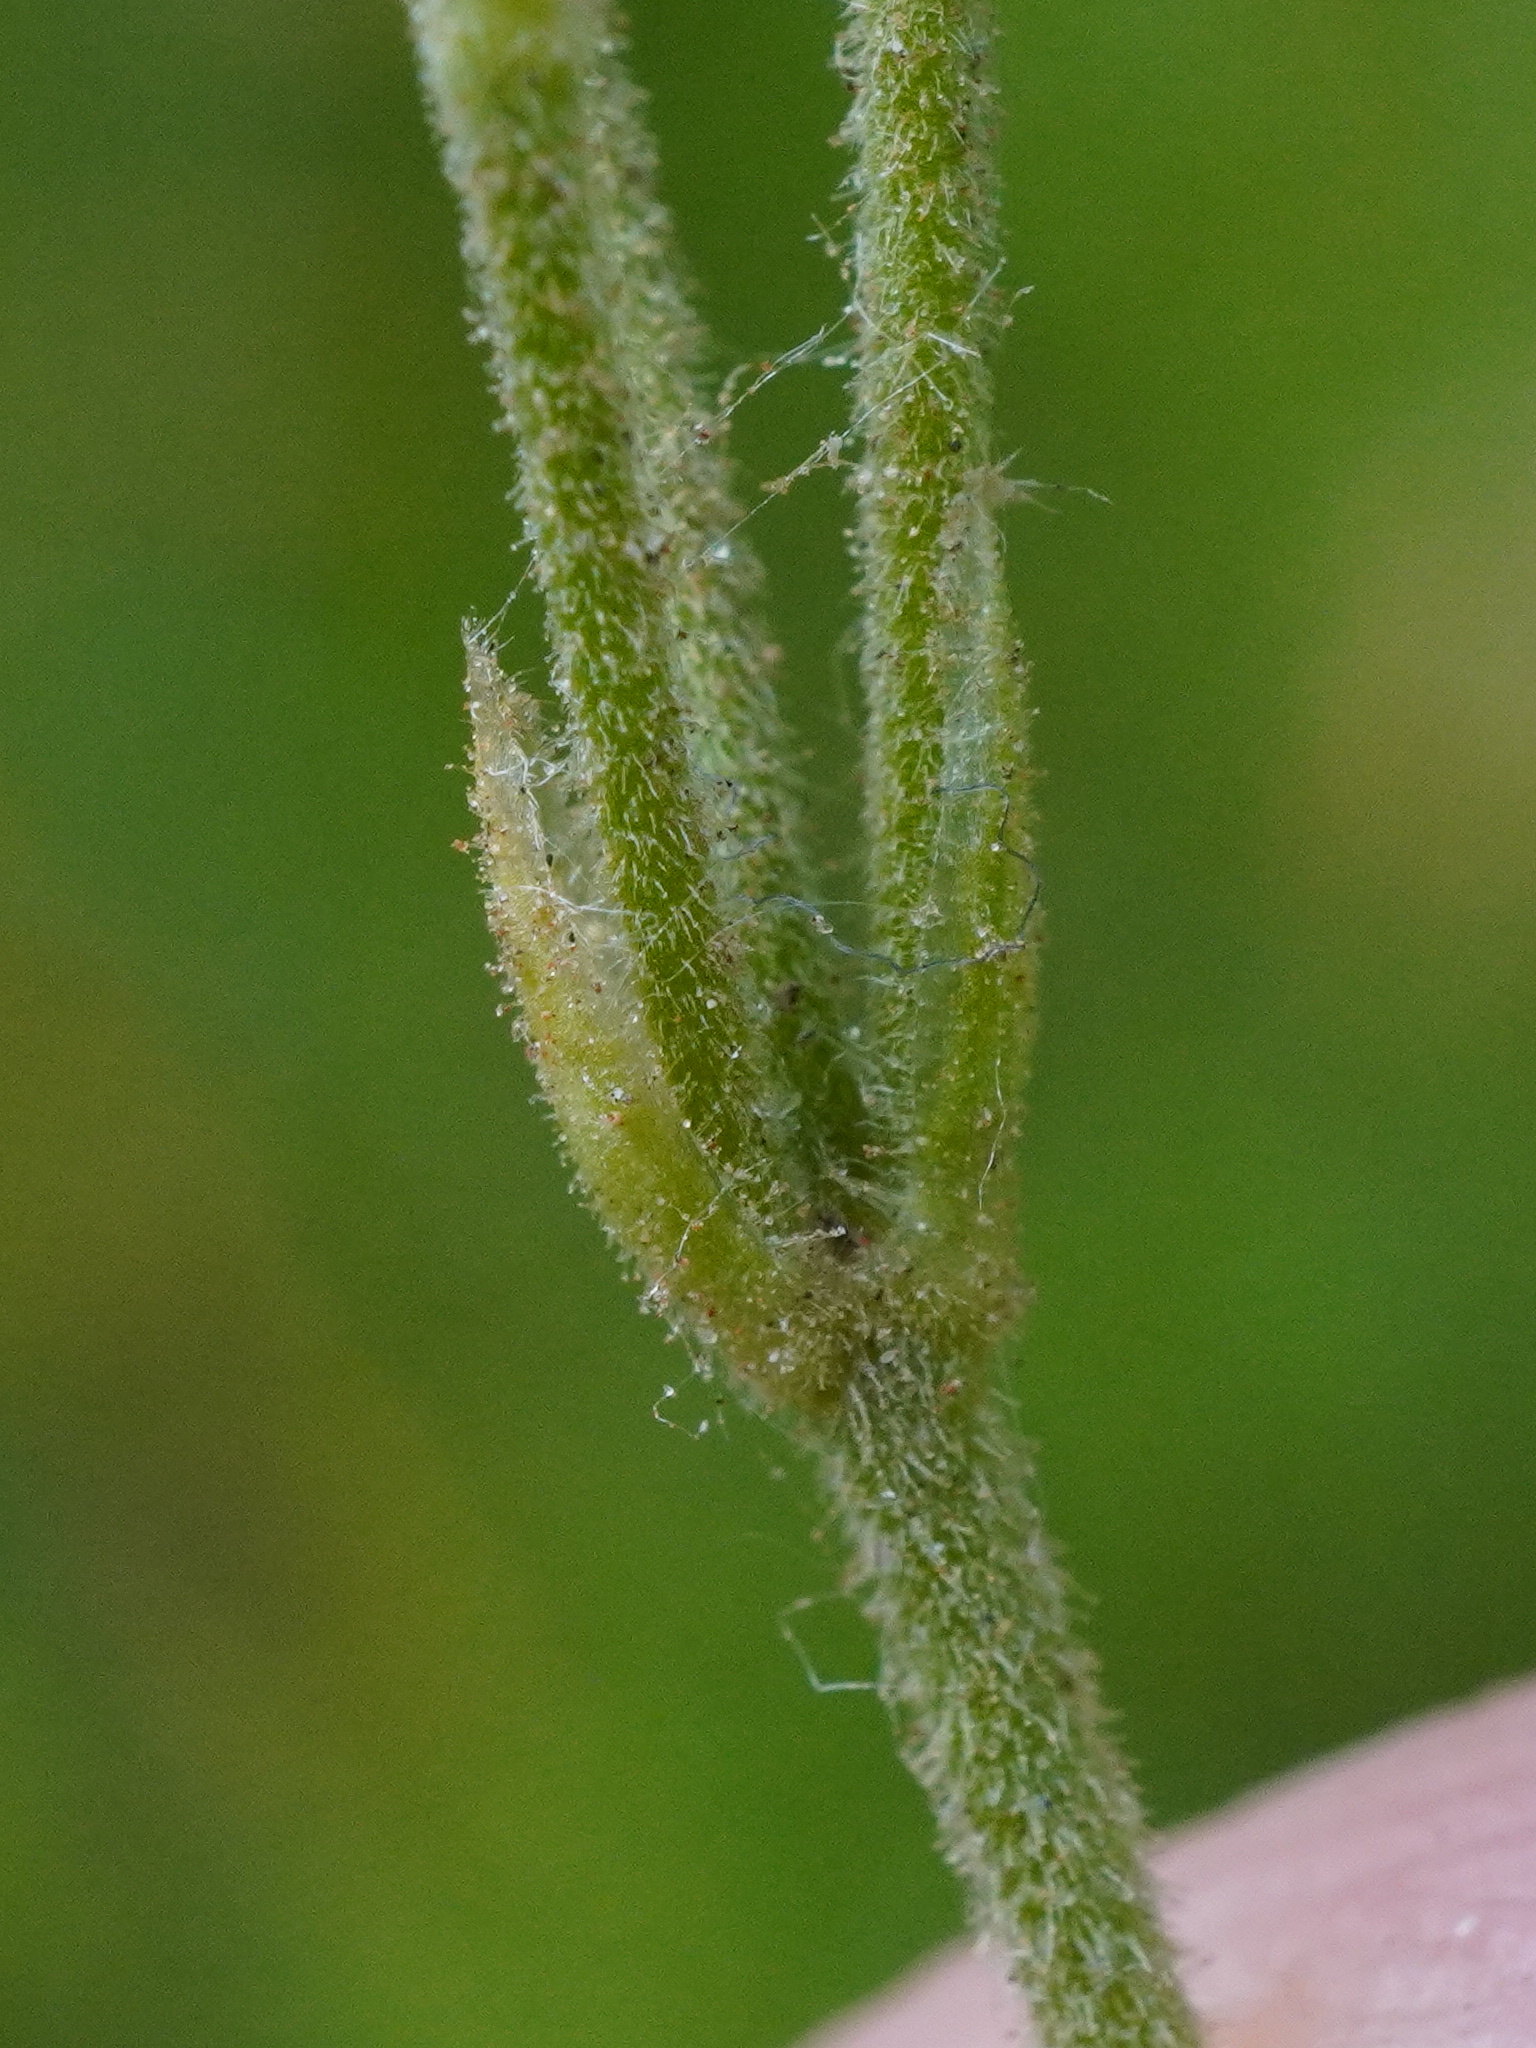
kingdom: Plantae
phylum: Tracheophyta
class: Magnoliopsida
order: Caryophyllales
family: Caryophyllaceae
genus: Cerastium
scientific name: Cerastium arvense
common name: Field mouse-ear
